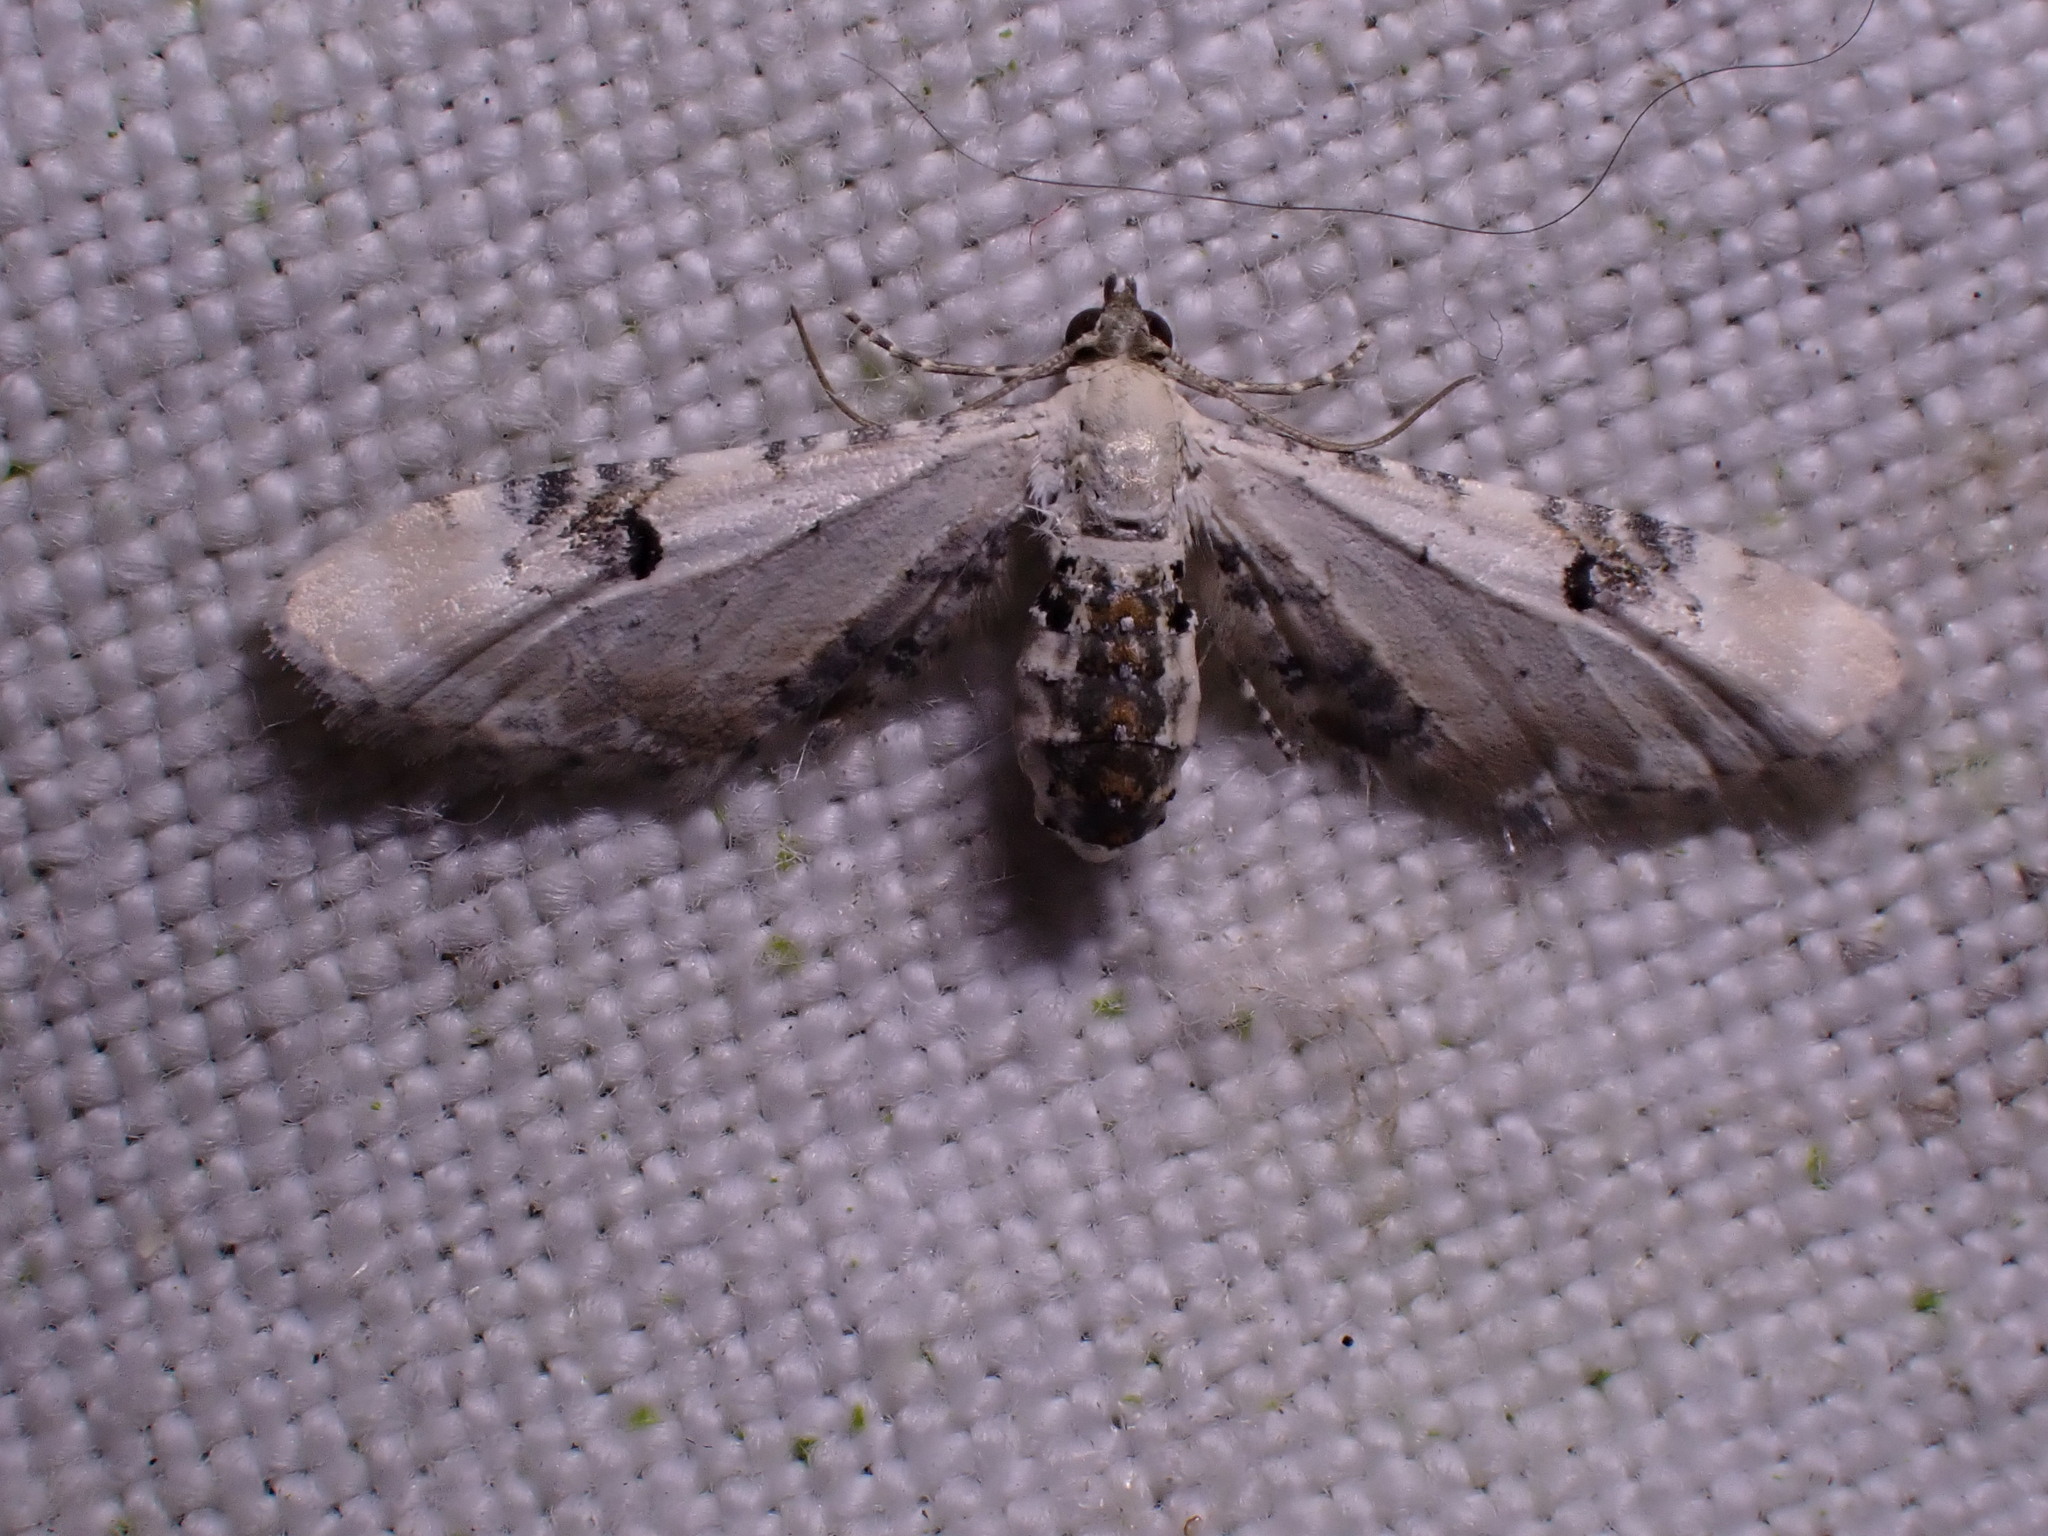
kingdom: Animalia
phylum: Arthropoda
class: Insecta
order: Lepidoptera
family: Geometridae
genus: Eupithecia
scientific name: Eupithecia centaureata
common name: Lime-speck pug
